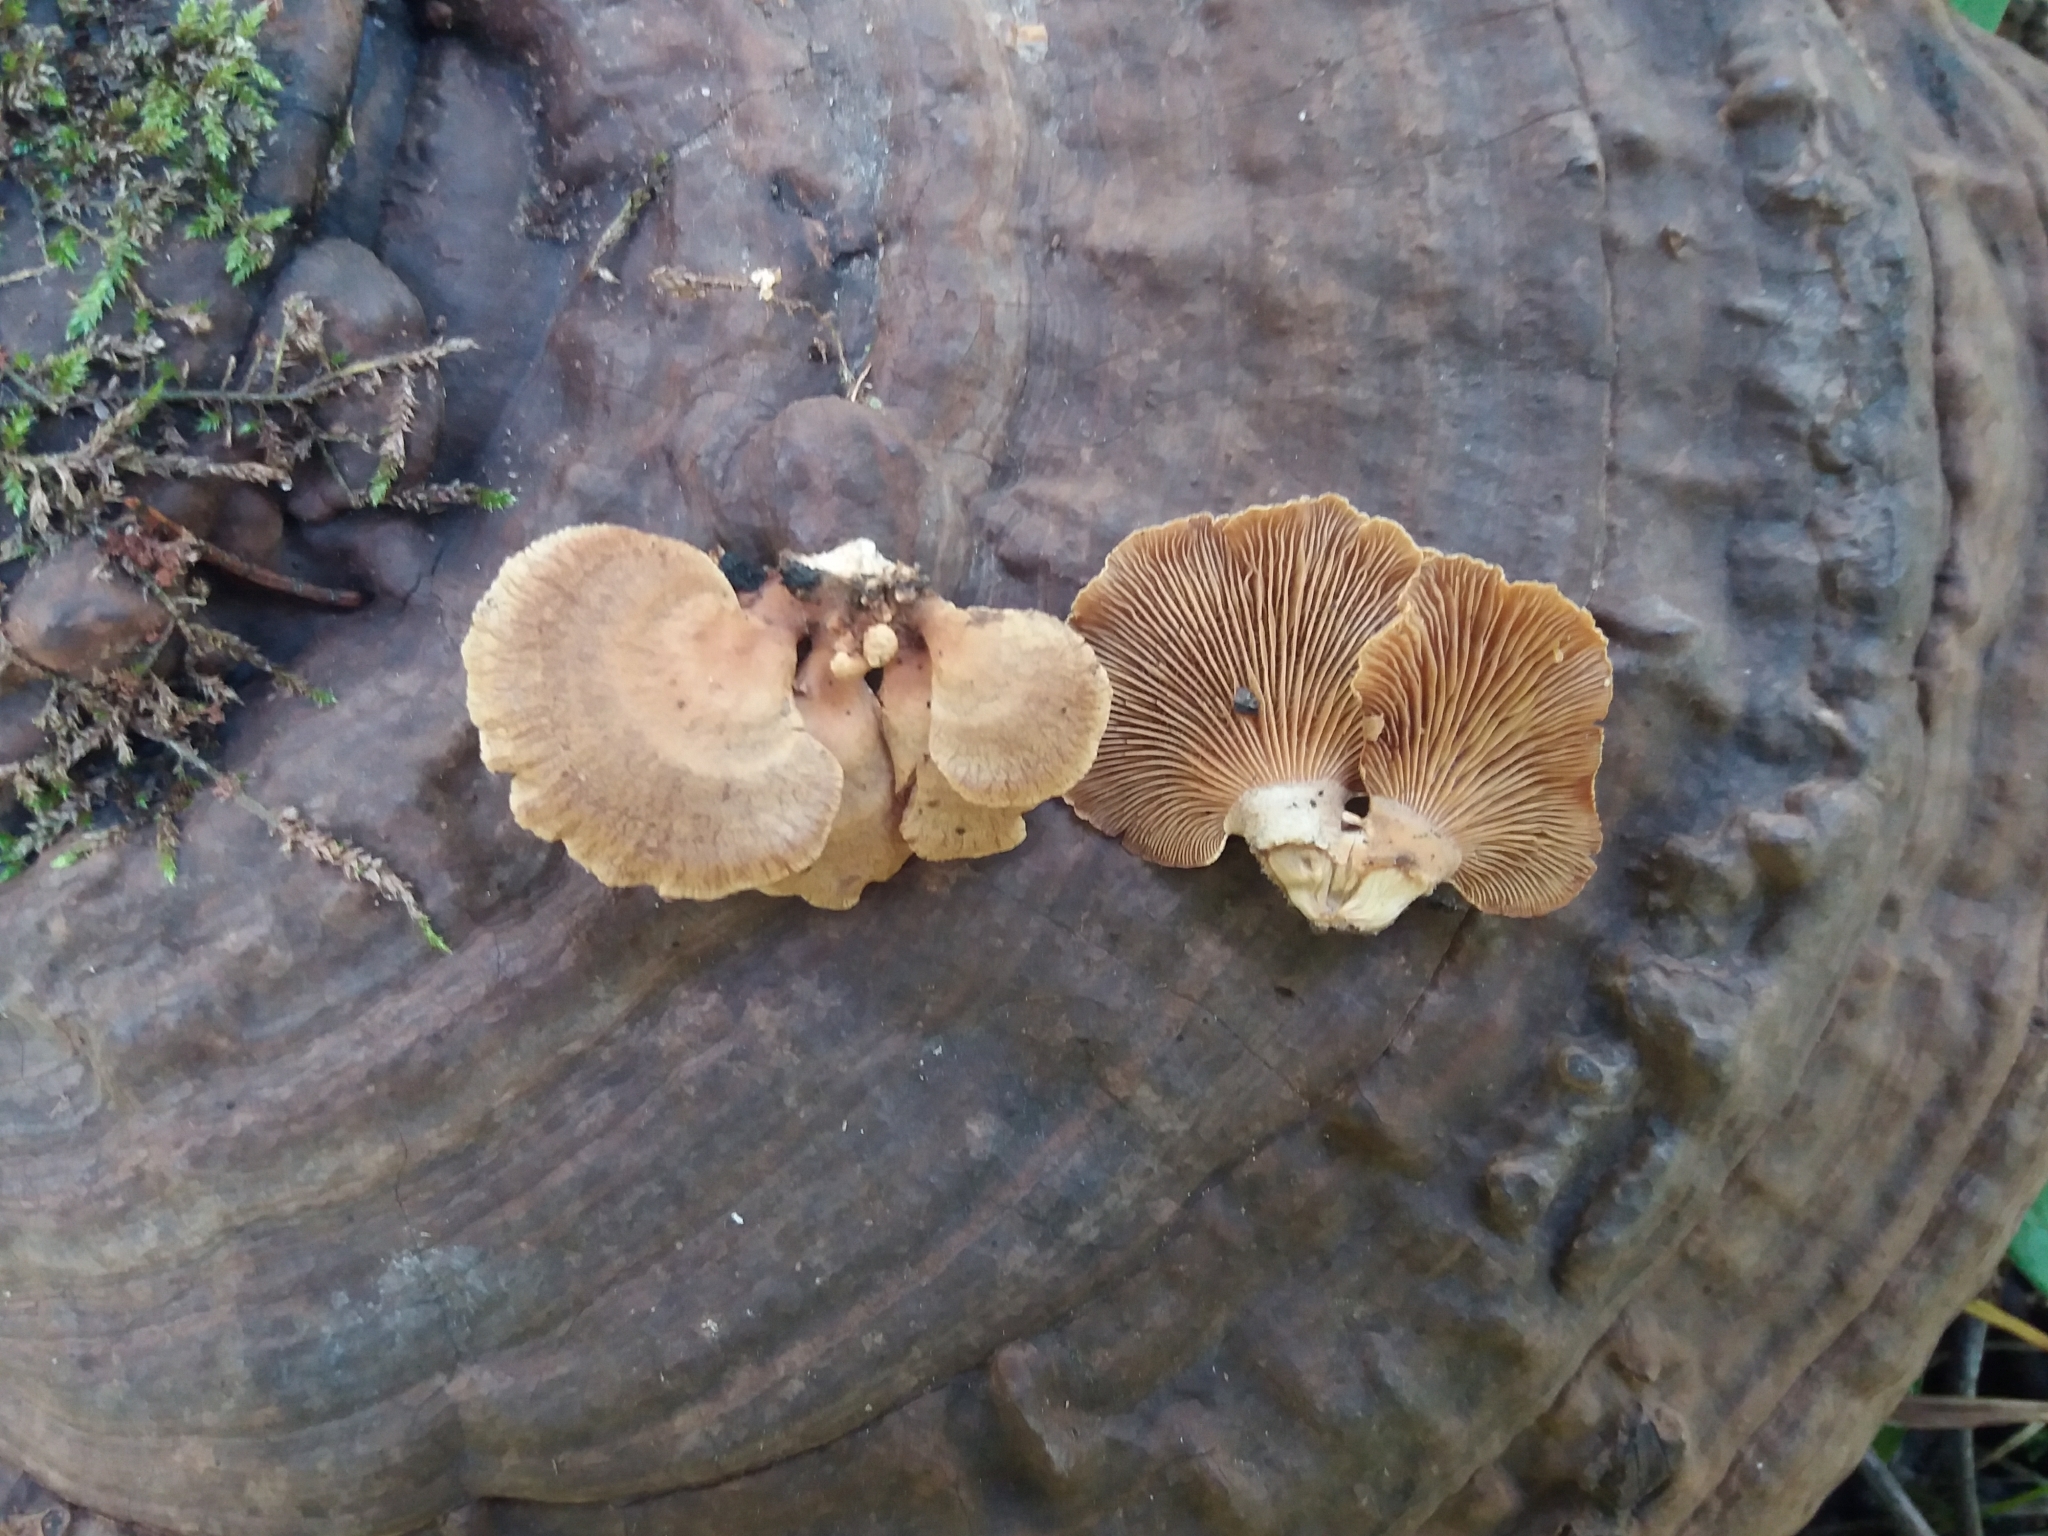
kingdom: Fungi
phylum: Basidiomycota
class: Agaricomycetes
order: Agaricales
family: Mycenaceae
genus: Panellus
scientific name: Panellus stipticus
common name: Bitter oysterling
